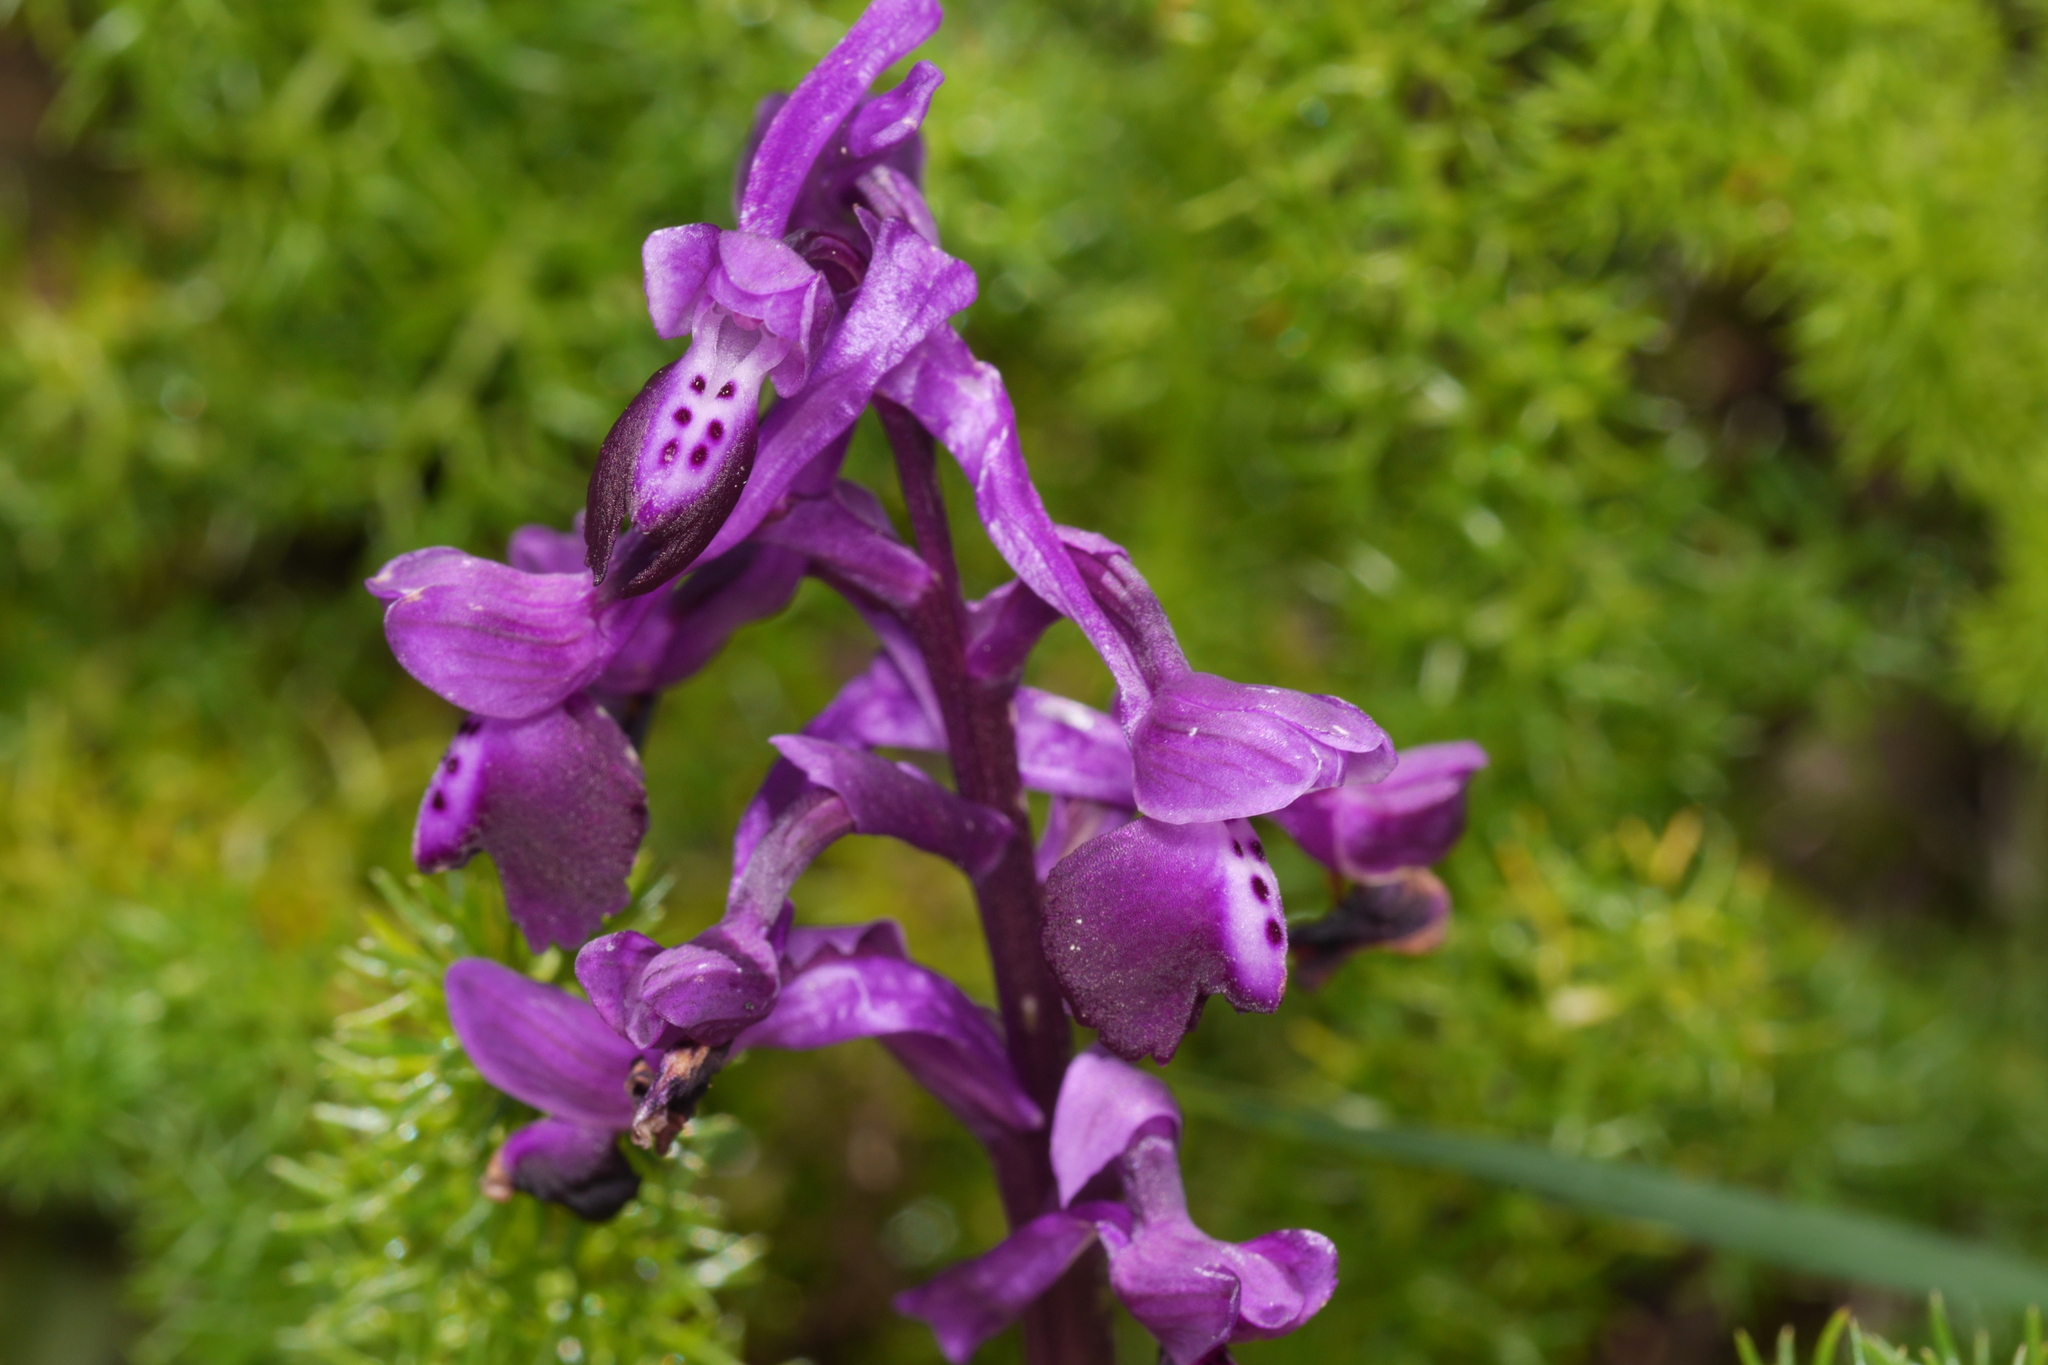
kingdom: Plantae
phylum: Tracheophyta
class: Liliopsida
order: Asparagales
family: Orchidaceae
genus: Anacamptis
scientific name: Anacamptis morio
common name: Green-winged orchid
